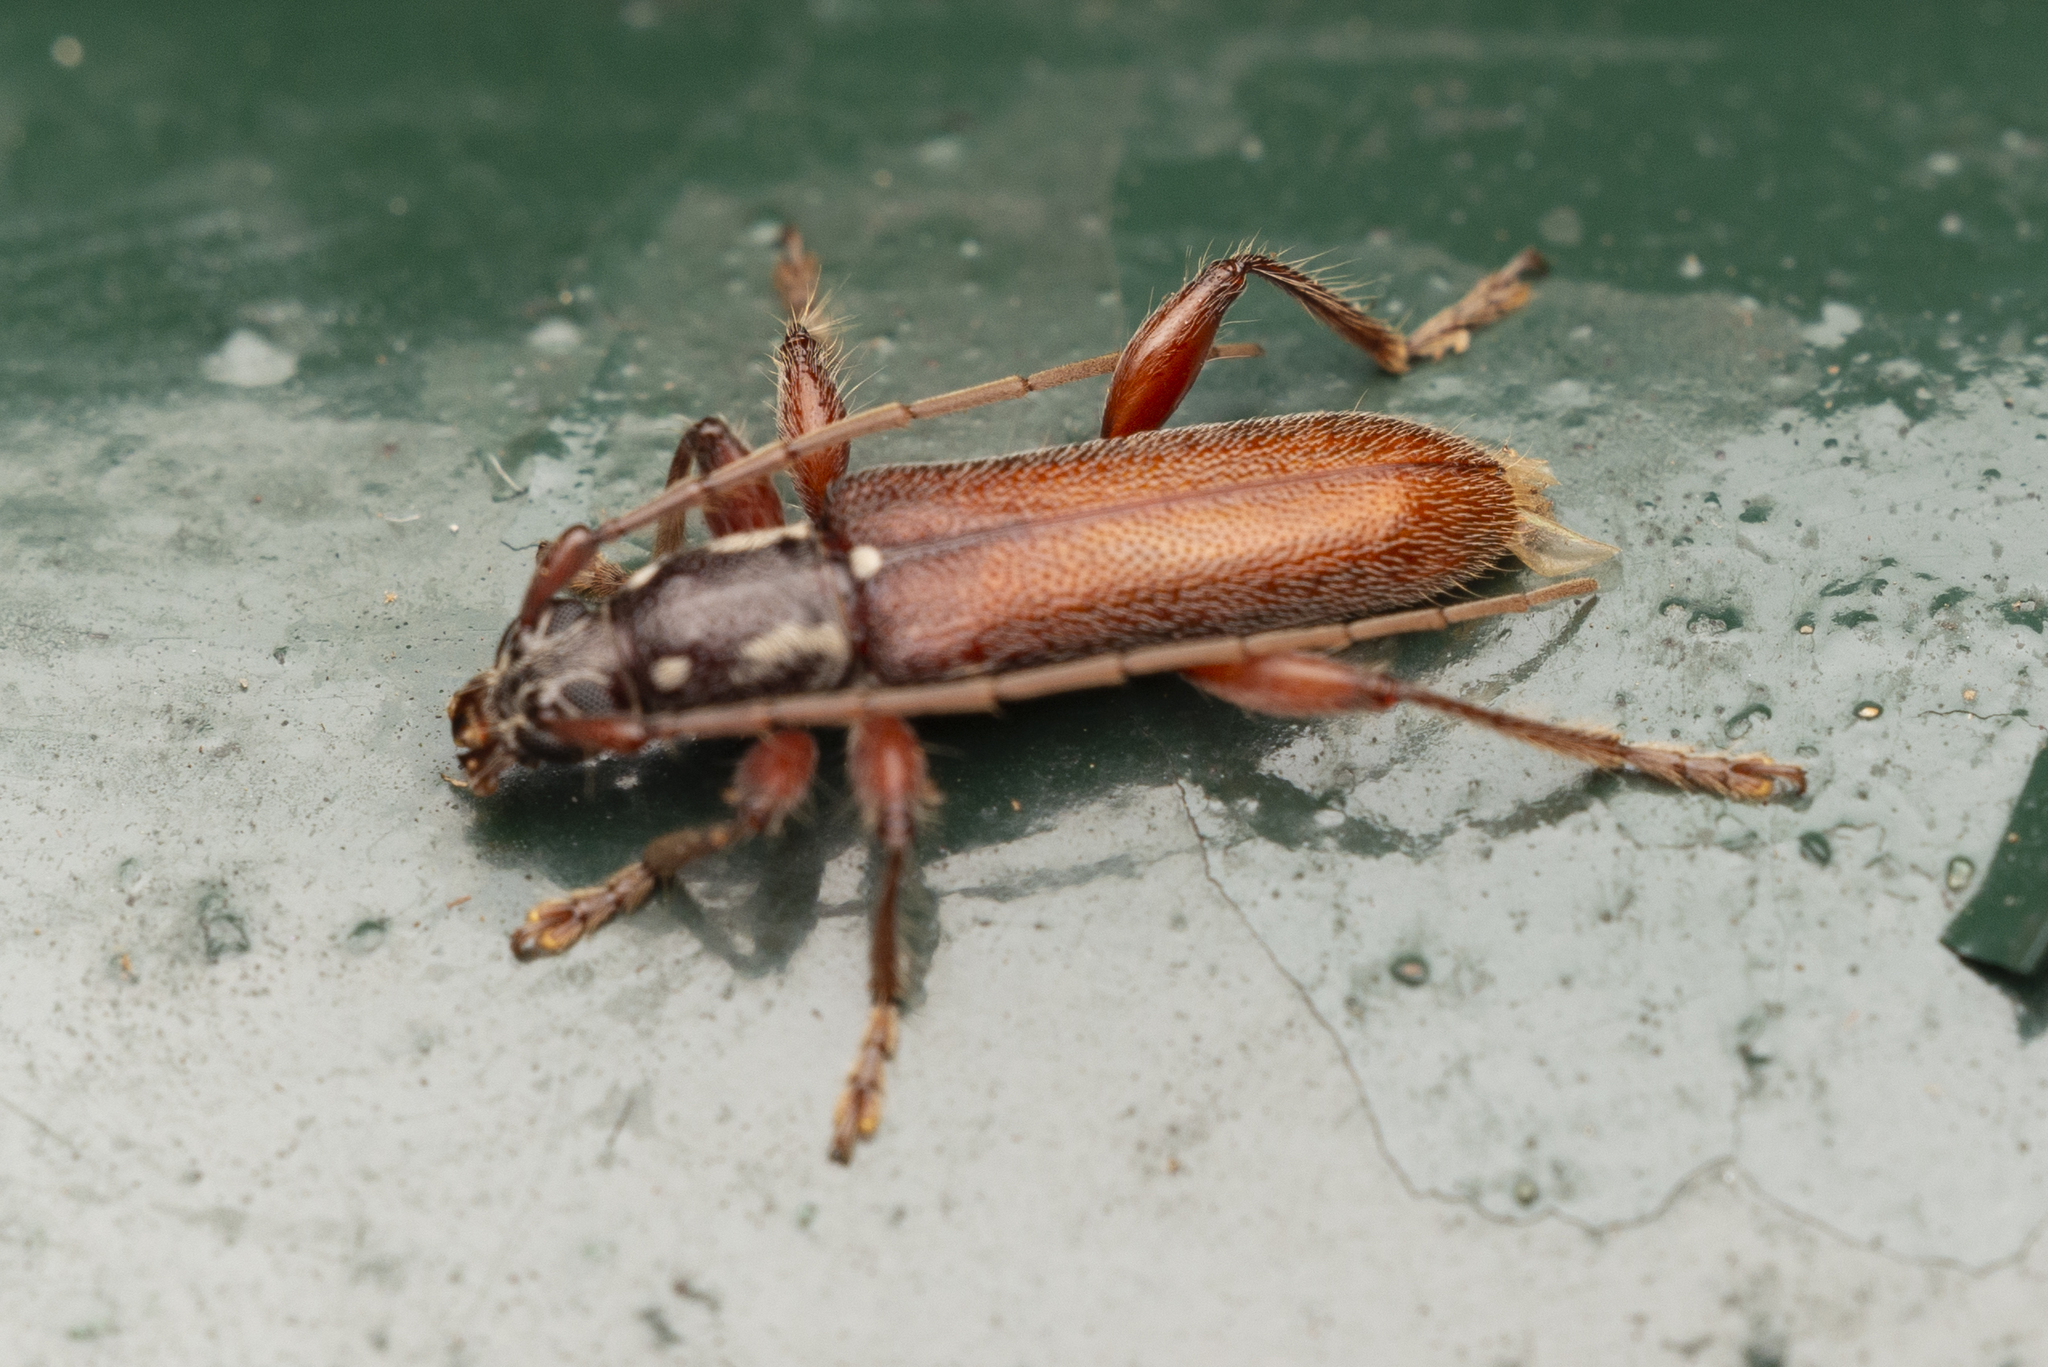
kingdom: Animalia
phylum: Arthropoda
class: Insecta
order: Coleoptera
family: Cerambycidae
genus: Ceresium
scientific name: Ceresium sinicum
